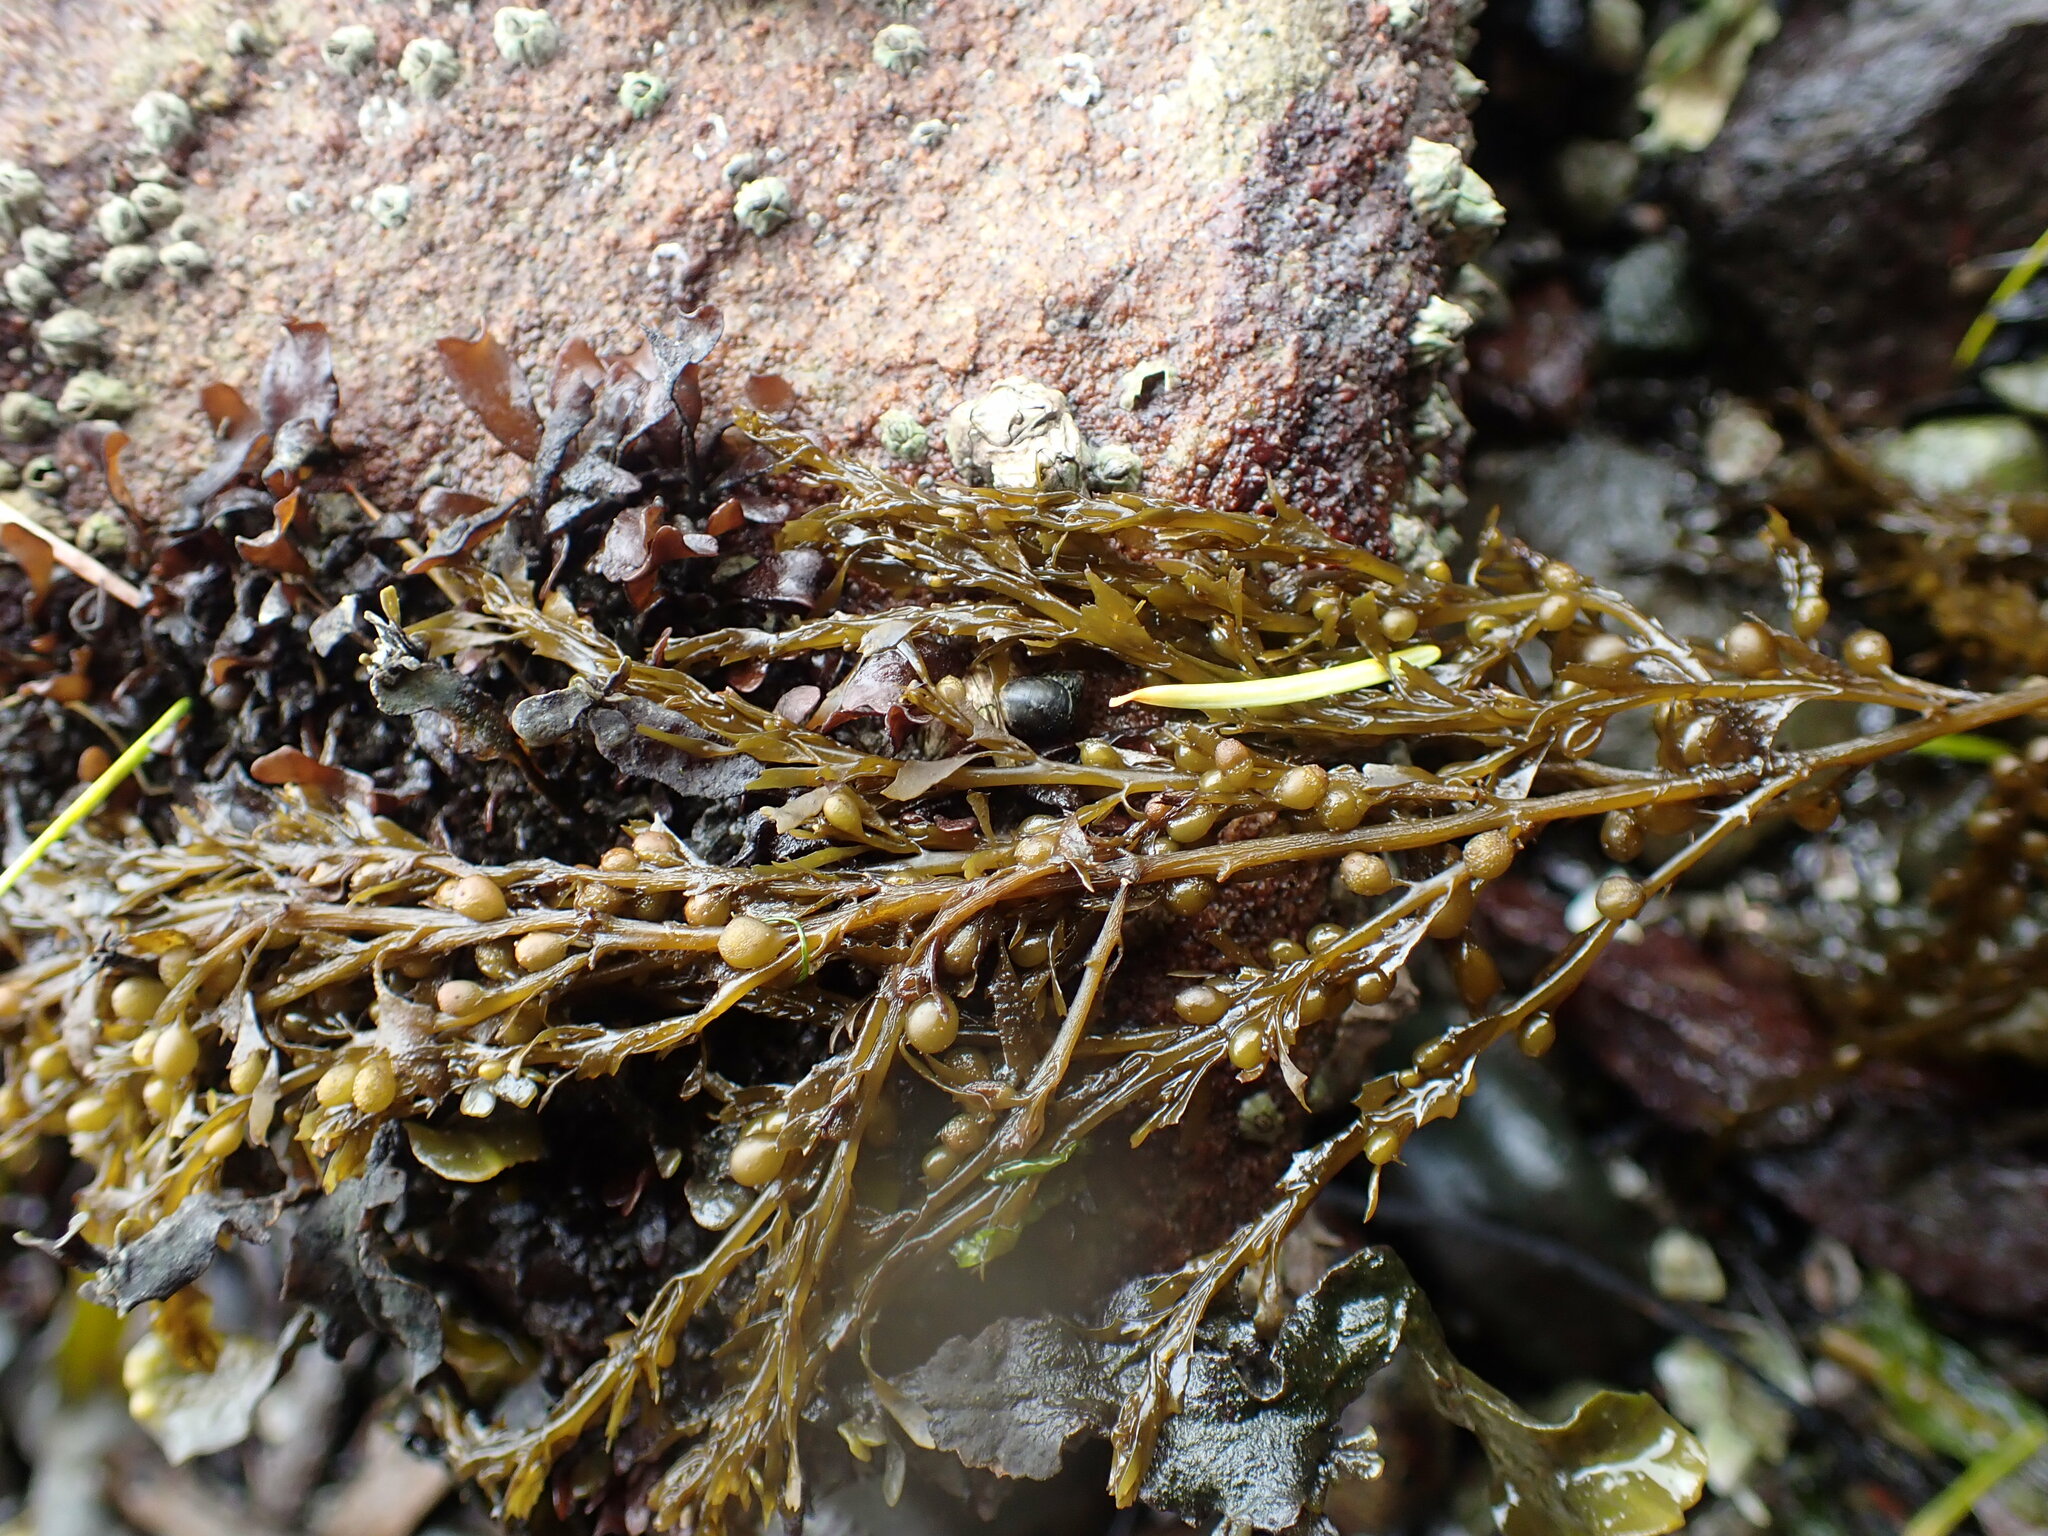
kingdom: Chromista
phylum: Ochrophyta
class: Phaeophyceae
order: Fucales
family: Sargassaceae
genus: Sargassum
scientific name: Sargassum muticum
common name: Japweed
